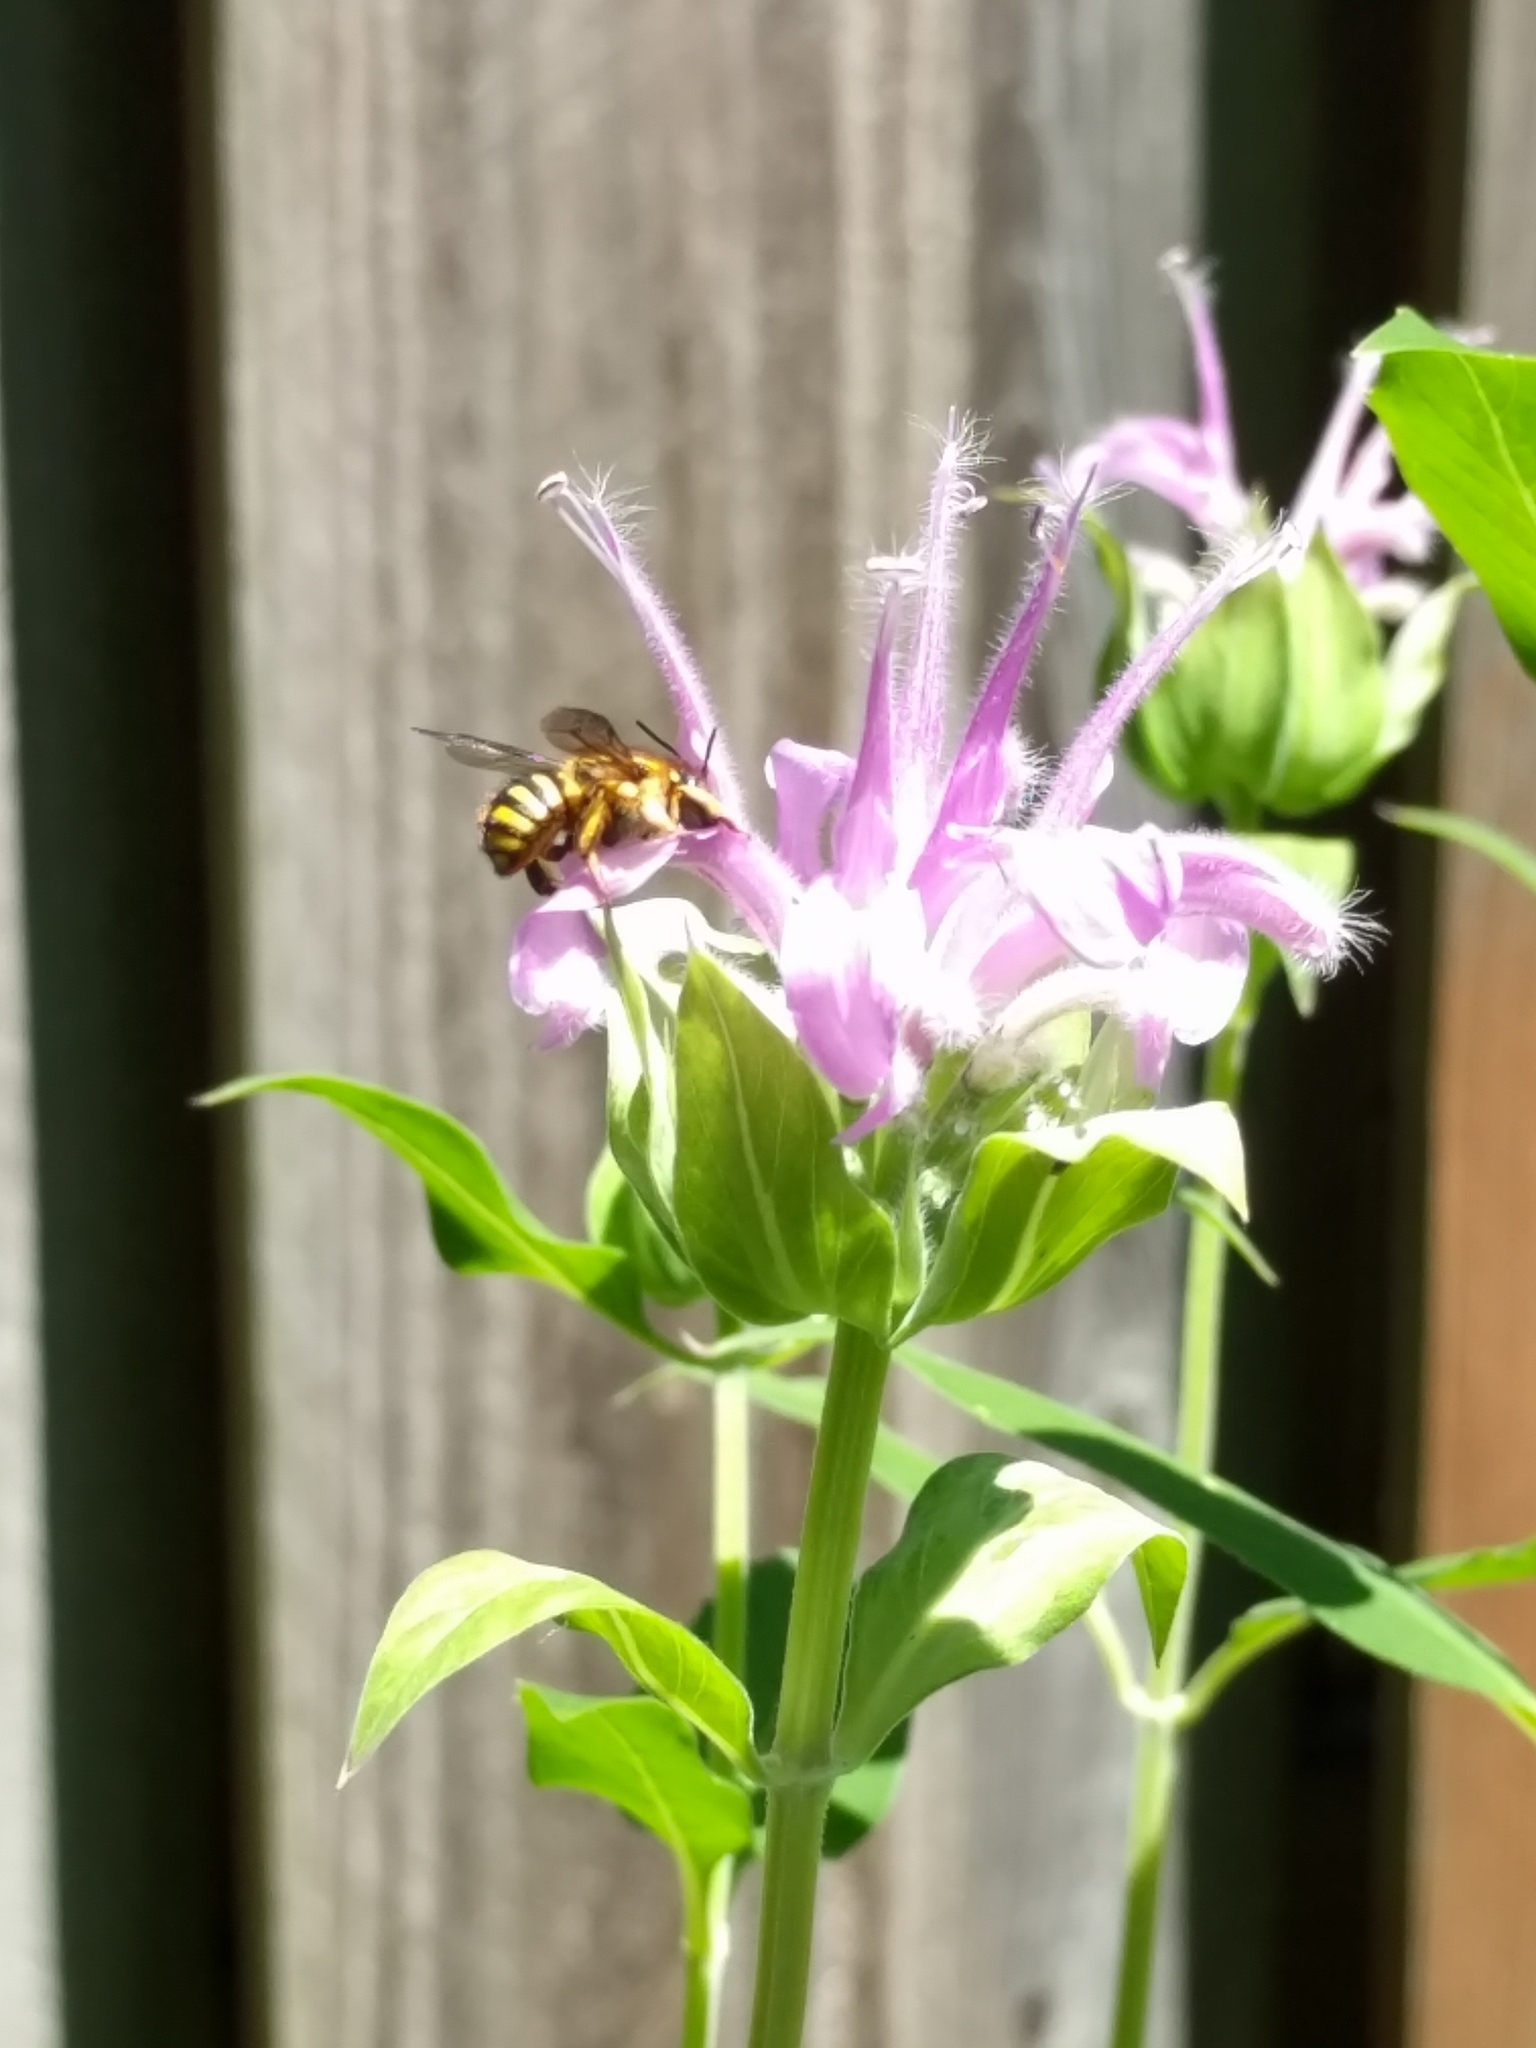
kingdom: Animalia
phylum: Arthropoda
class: Insecta
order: Hymenoptera
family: Megachilidae
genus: Anthidium
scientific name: Anthidium manicatum
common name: Wool carder bee
